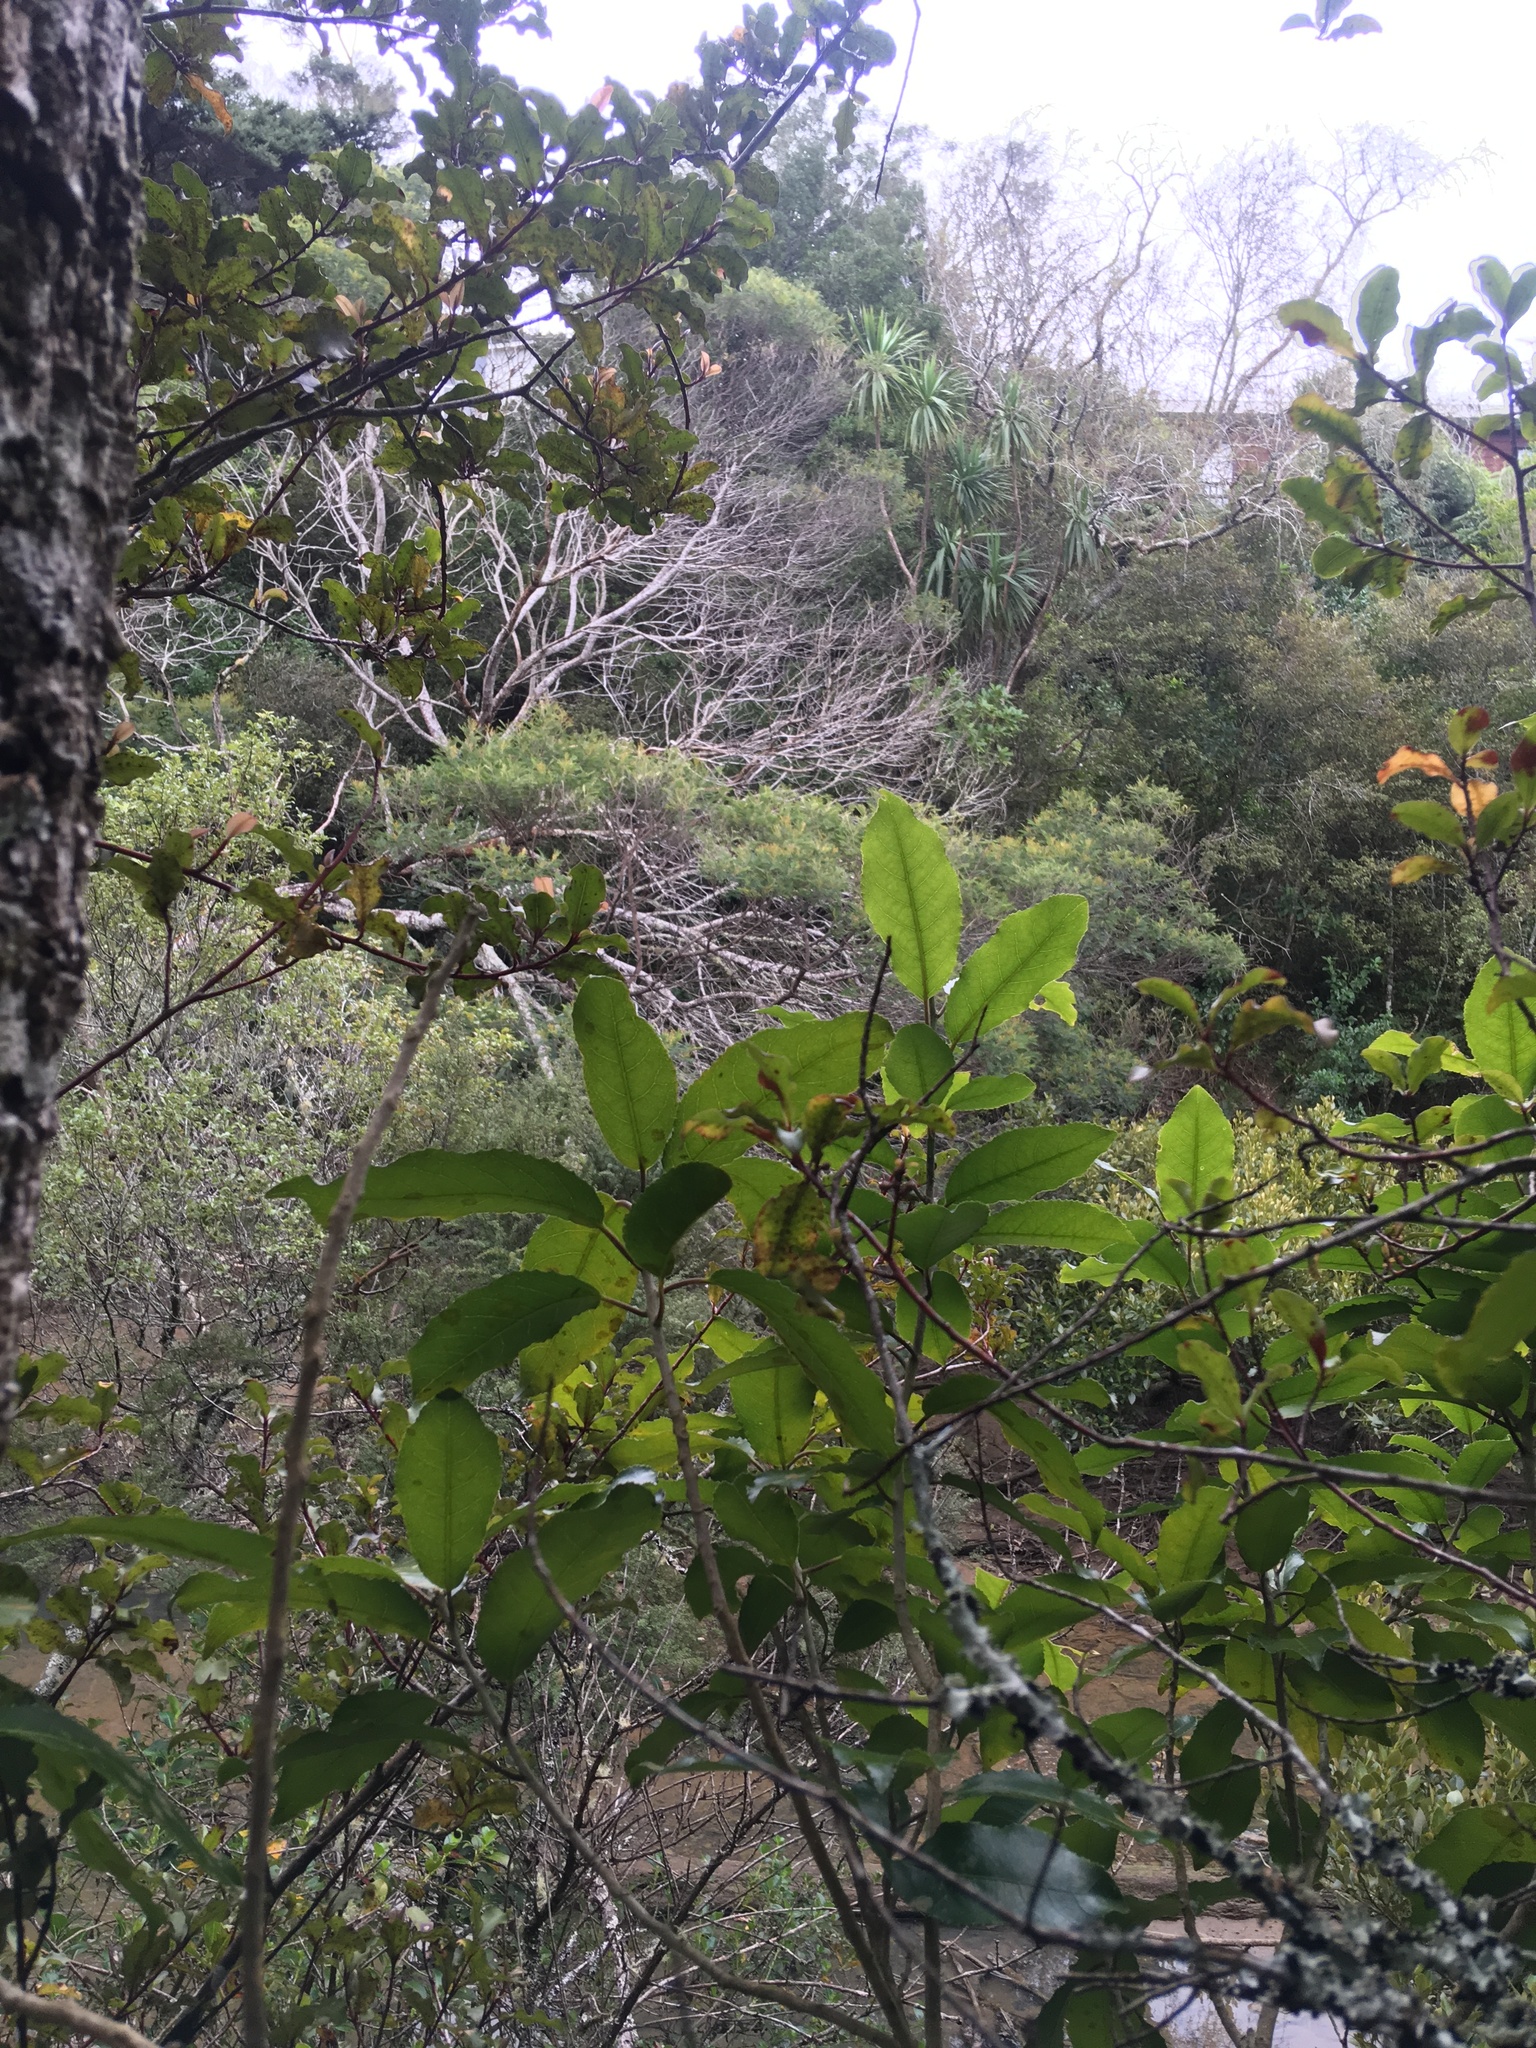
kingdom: Plantae
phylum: Tracheophyta
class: Liliopsida
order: Asparagales
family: Asparagaceae
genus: Cordyline
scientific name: Cordyline australis
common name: Cabbage-palm
